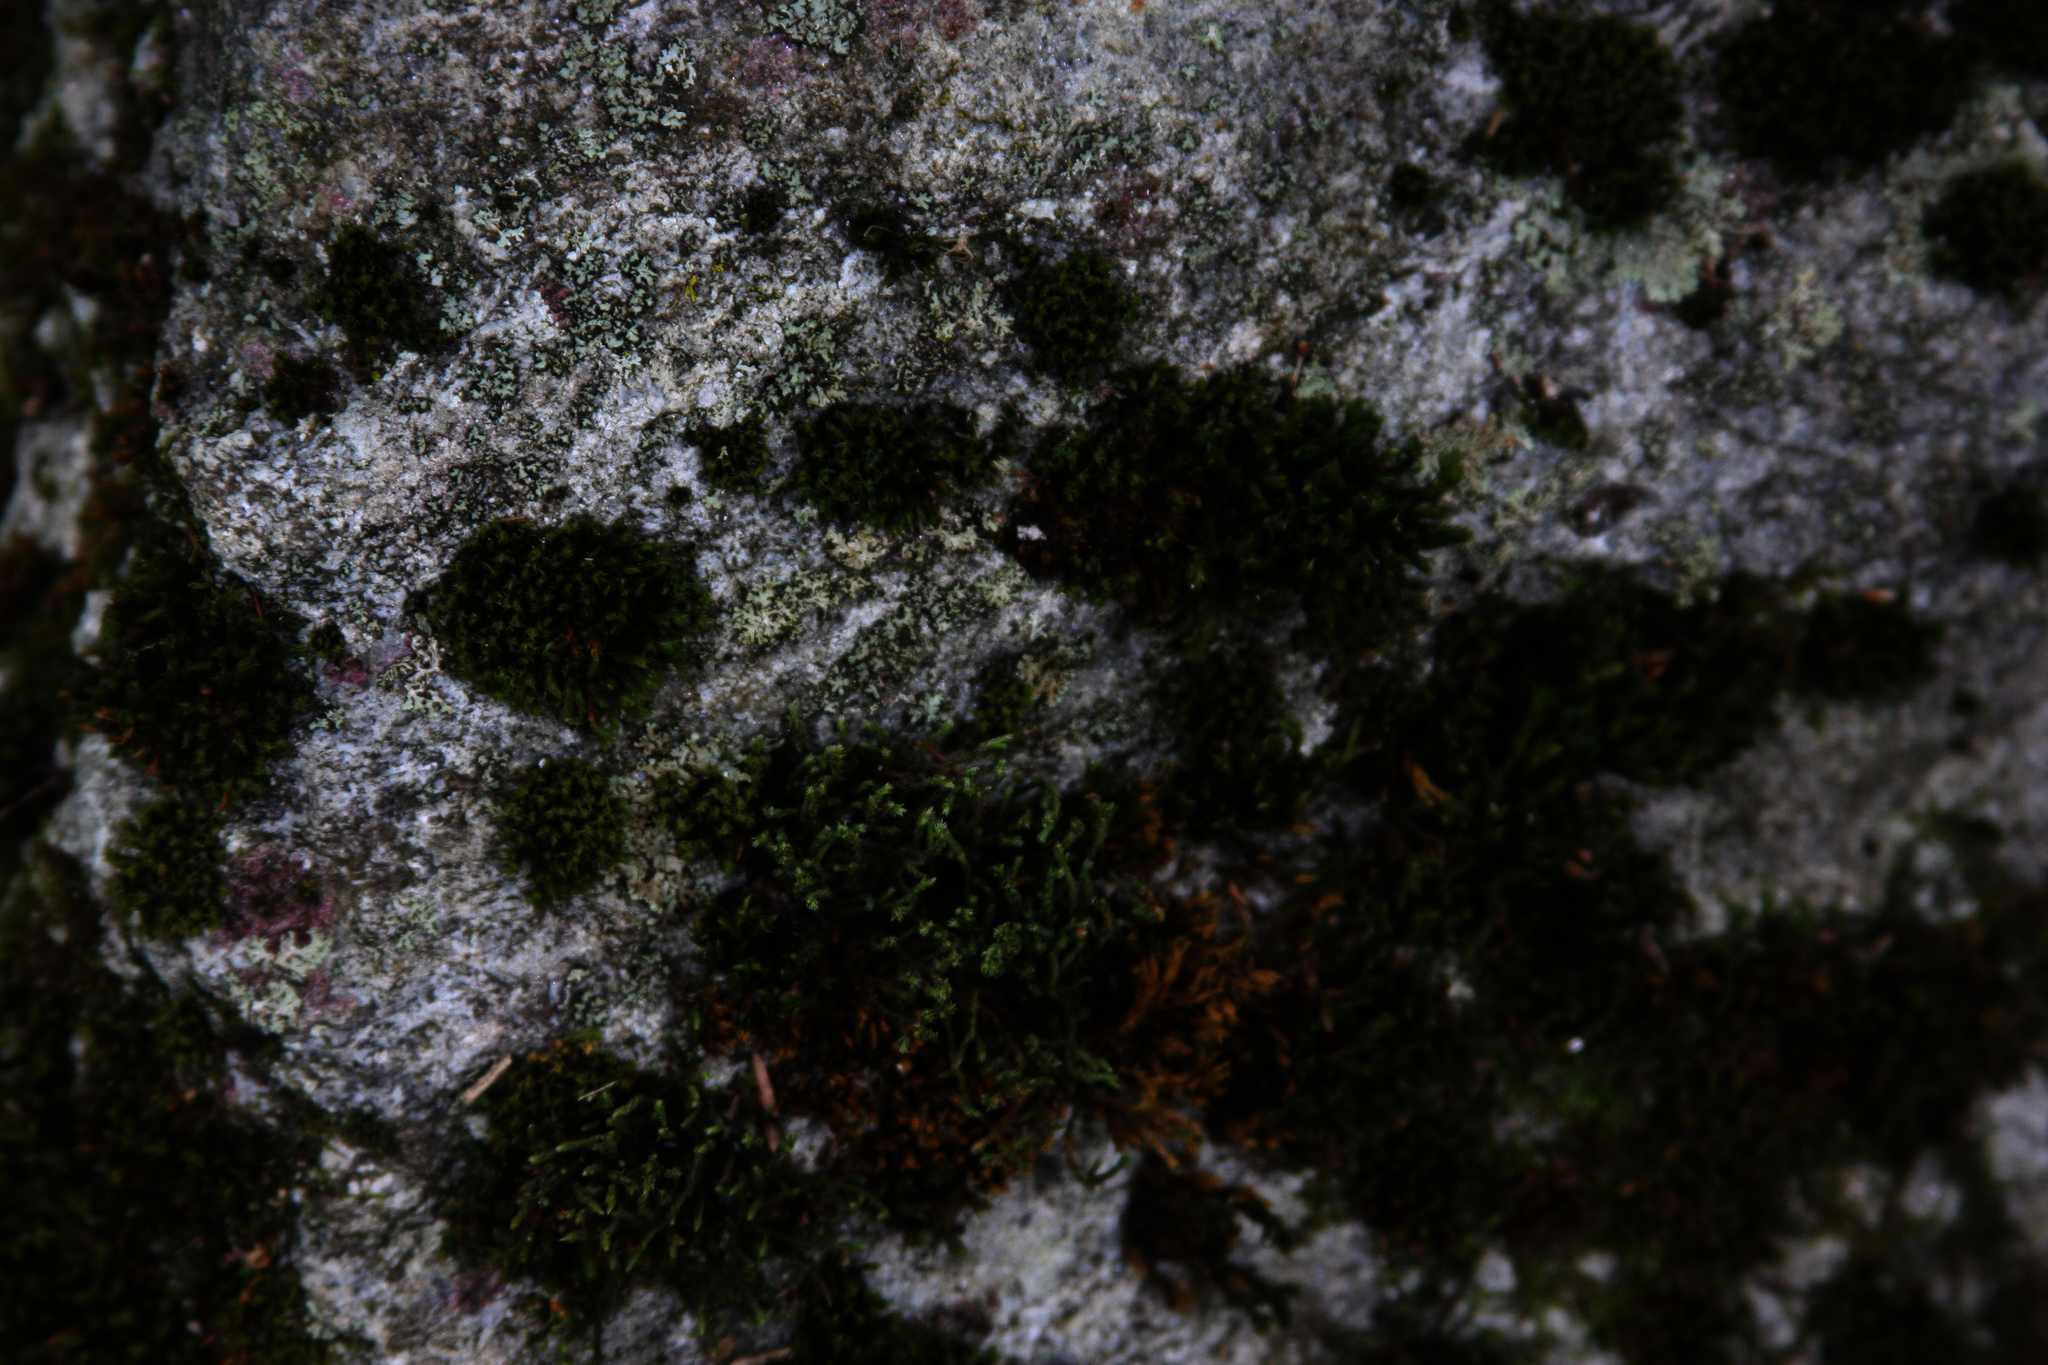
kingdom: Plantae
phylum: Bryophyta
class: Bryopsida
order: Orthotrichales
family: Orthotrichaceae
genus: Ulota
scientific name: Ulota crispa
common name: Crisped pincushion moss
